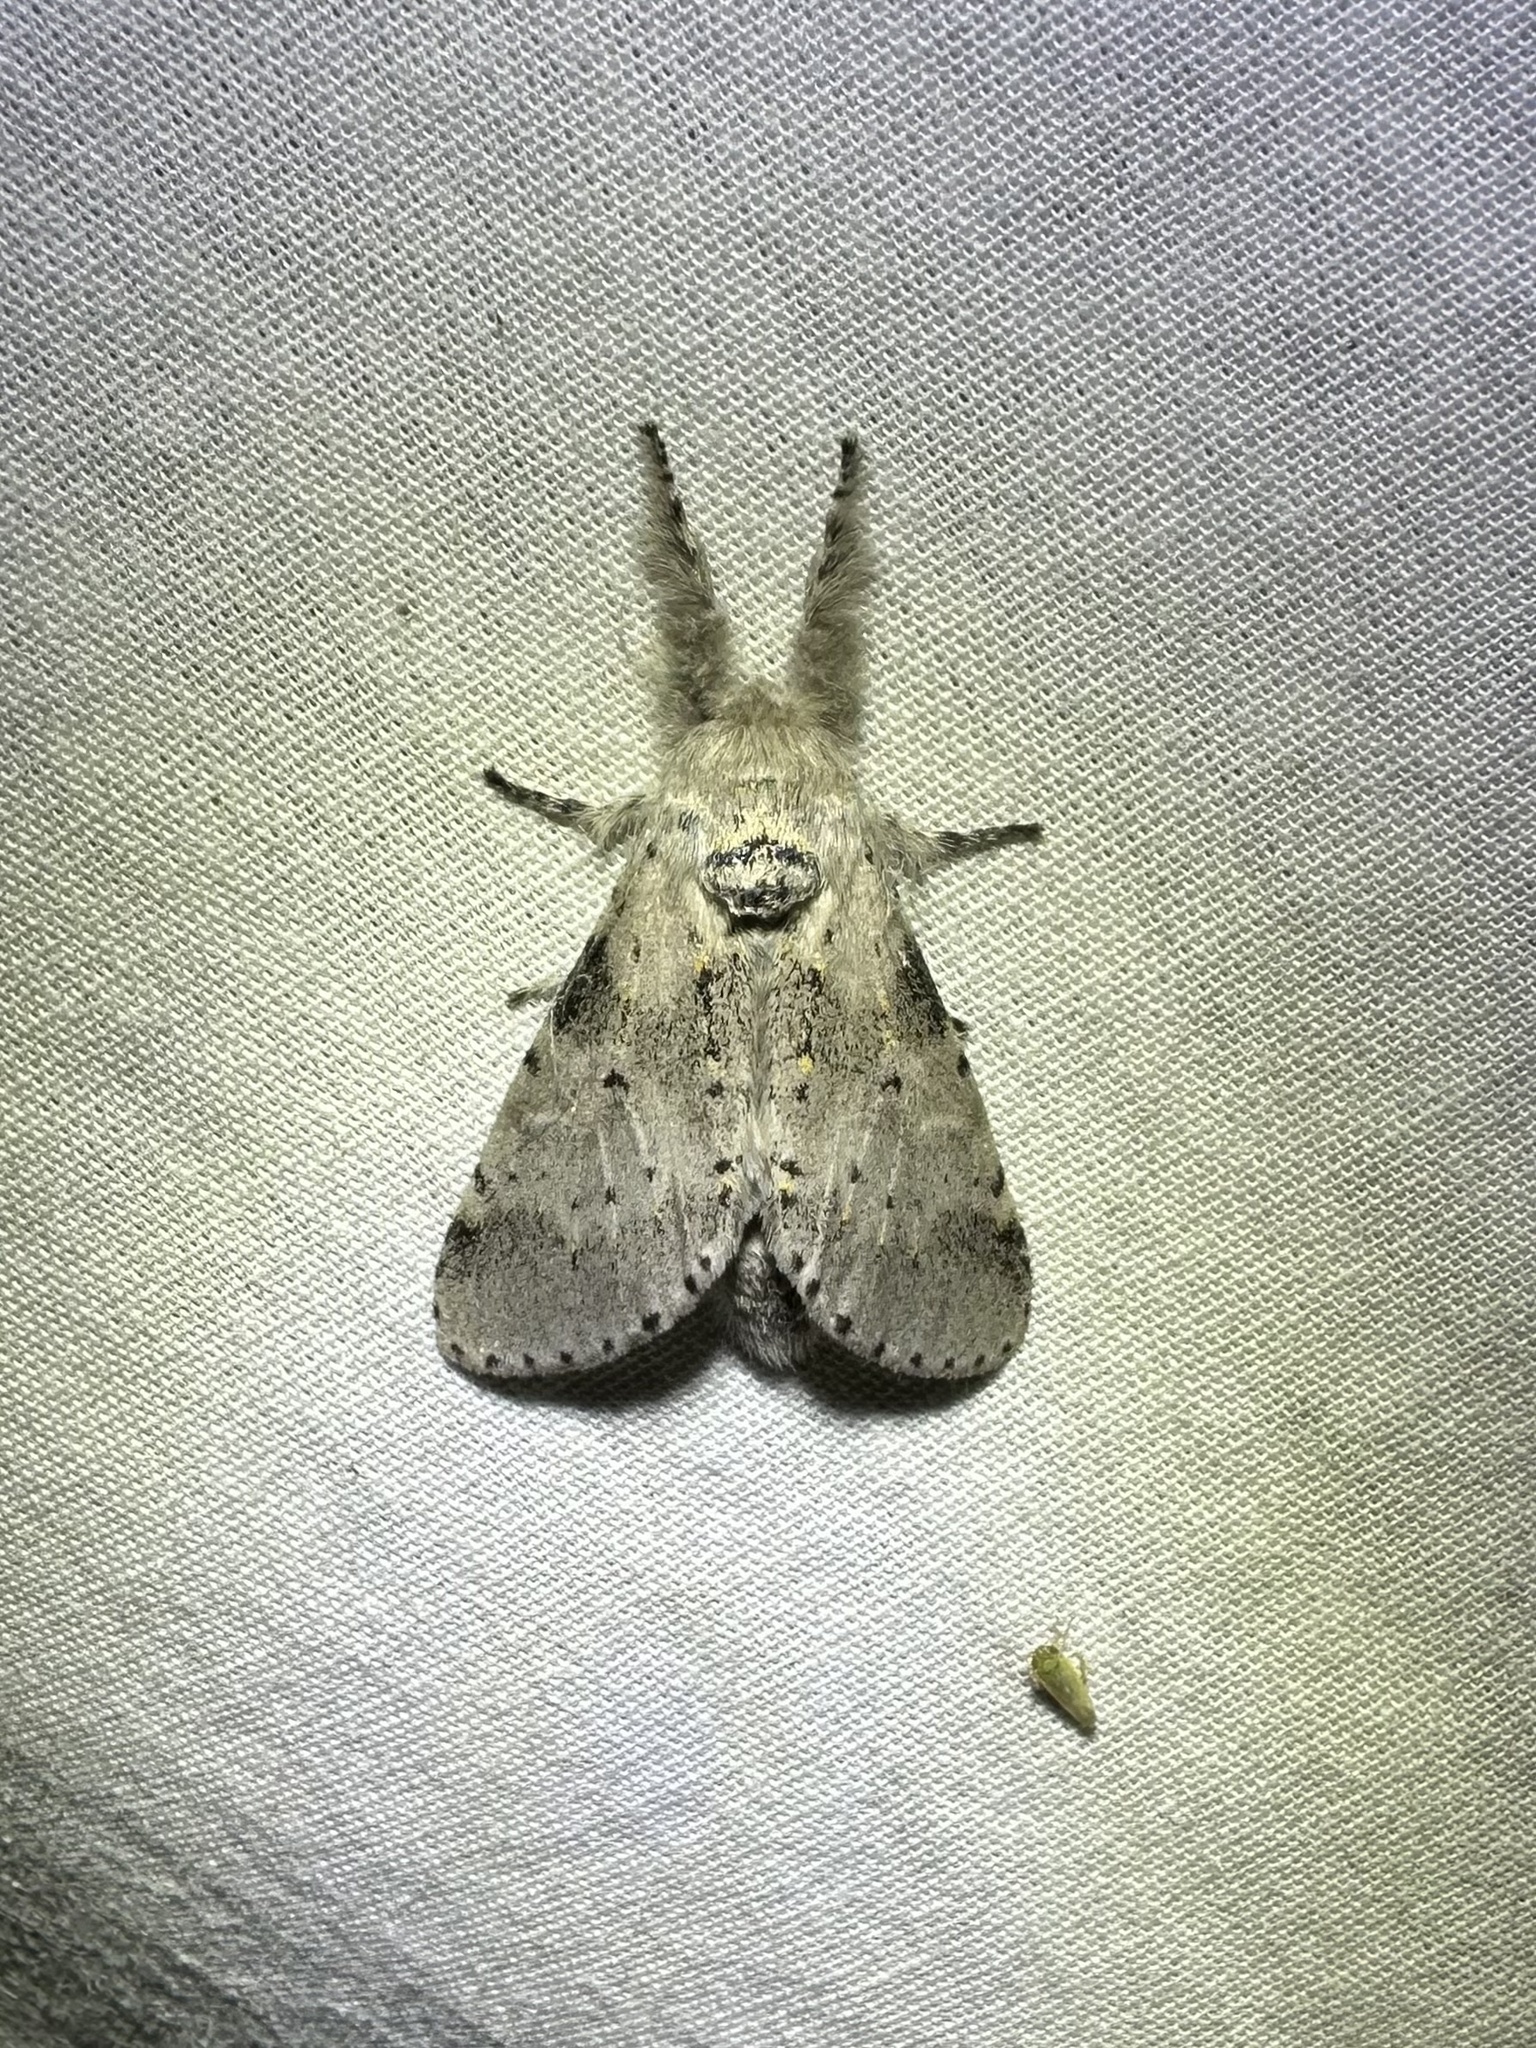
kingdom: Animalia
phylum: Arthropoda
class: Insecta
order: Lepidoptera
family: Notodontidae
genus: Furcula
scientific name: Furcula cinerea
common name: Gray furcula
